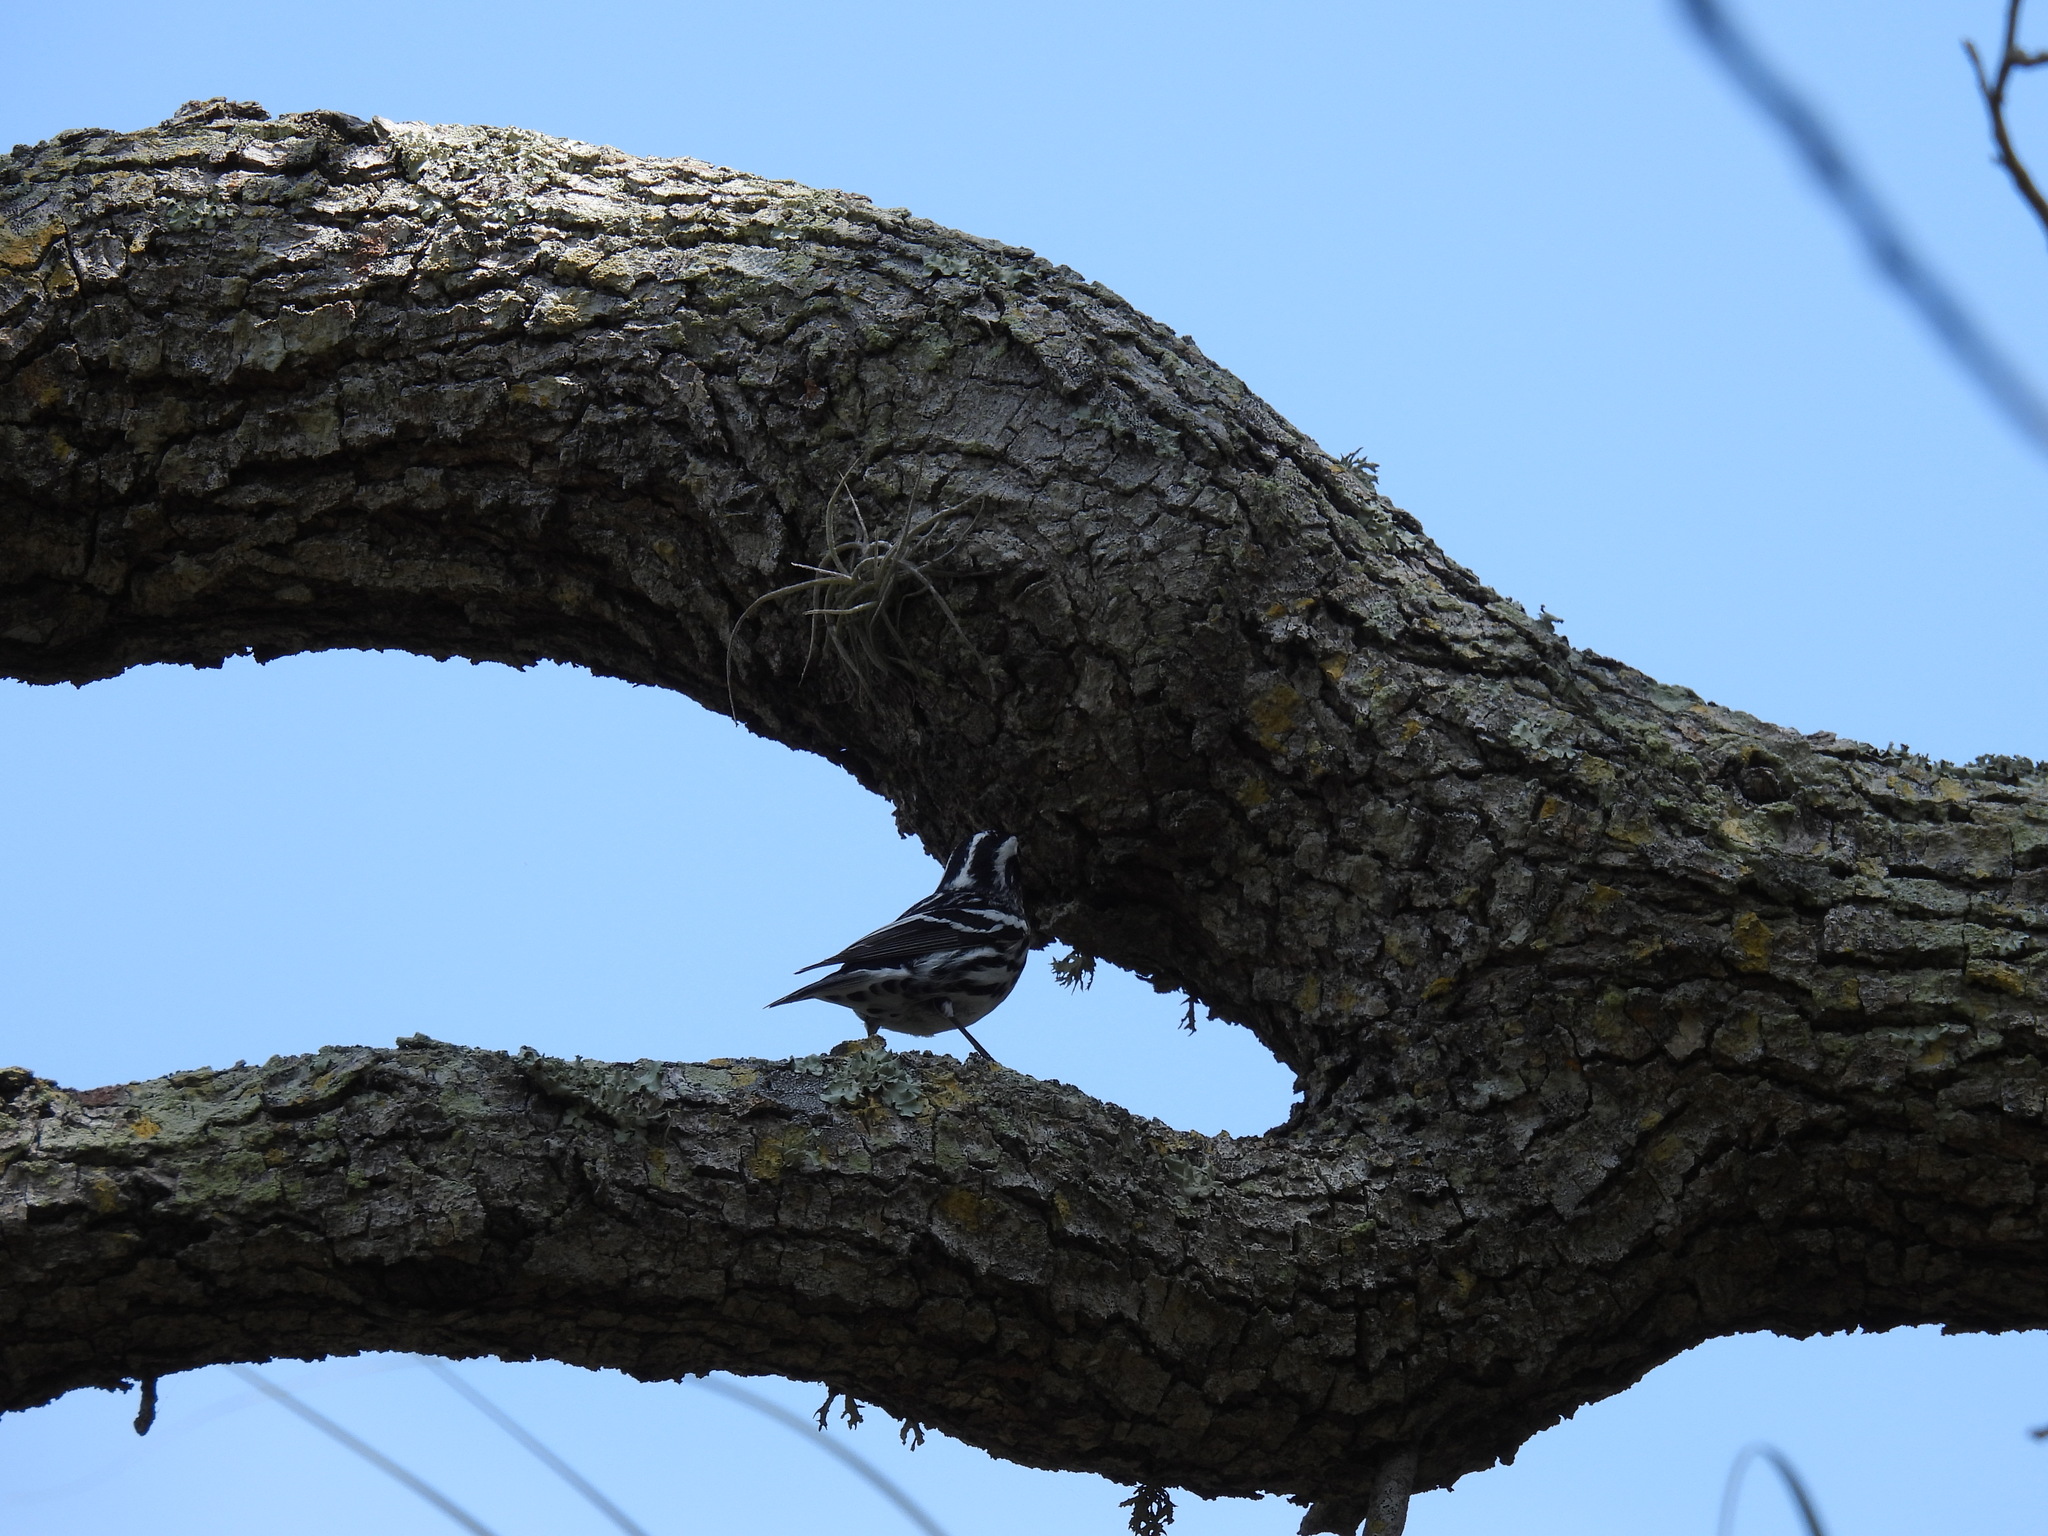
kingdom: Animalia
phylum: Chordata
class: Aves
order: Passeriformes
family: Parulidae
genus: Mniotilta
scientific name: Mniotilta varia
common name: Black-and-white warbler
